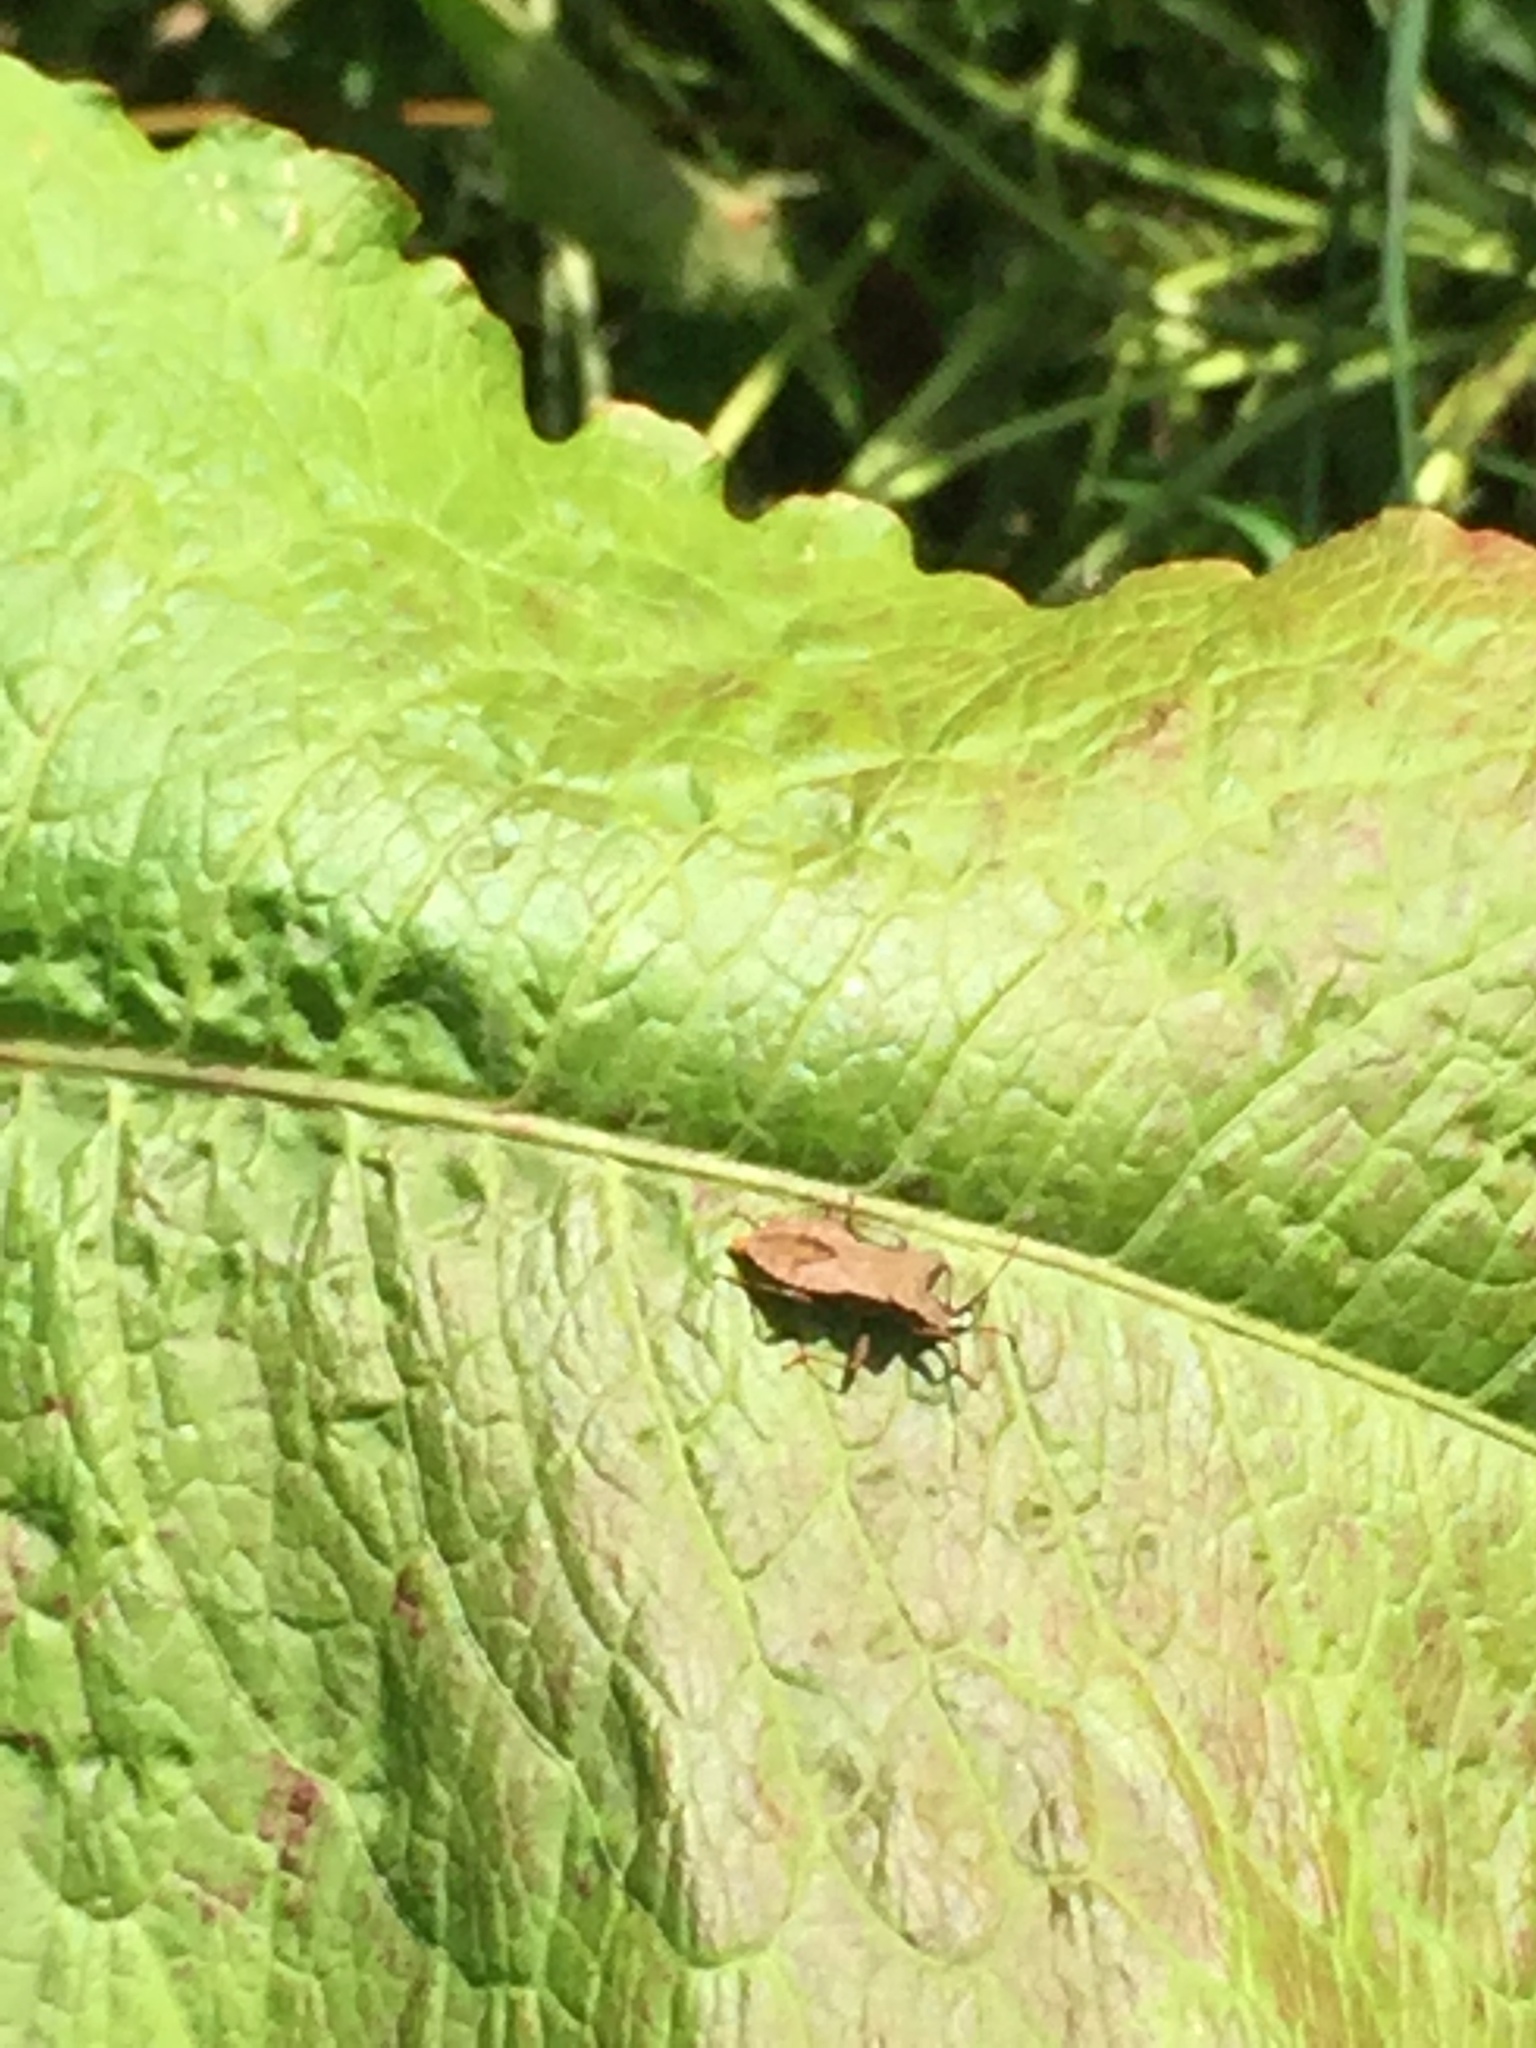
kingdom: Animalia
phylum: Arthropoda
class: Insecta
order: Hemiptera
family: Coreidae
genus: Coreus
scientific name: Coreus marginatus
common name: Dock bug
